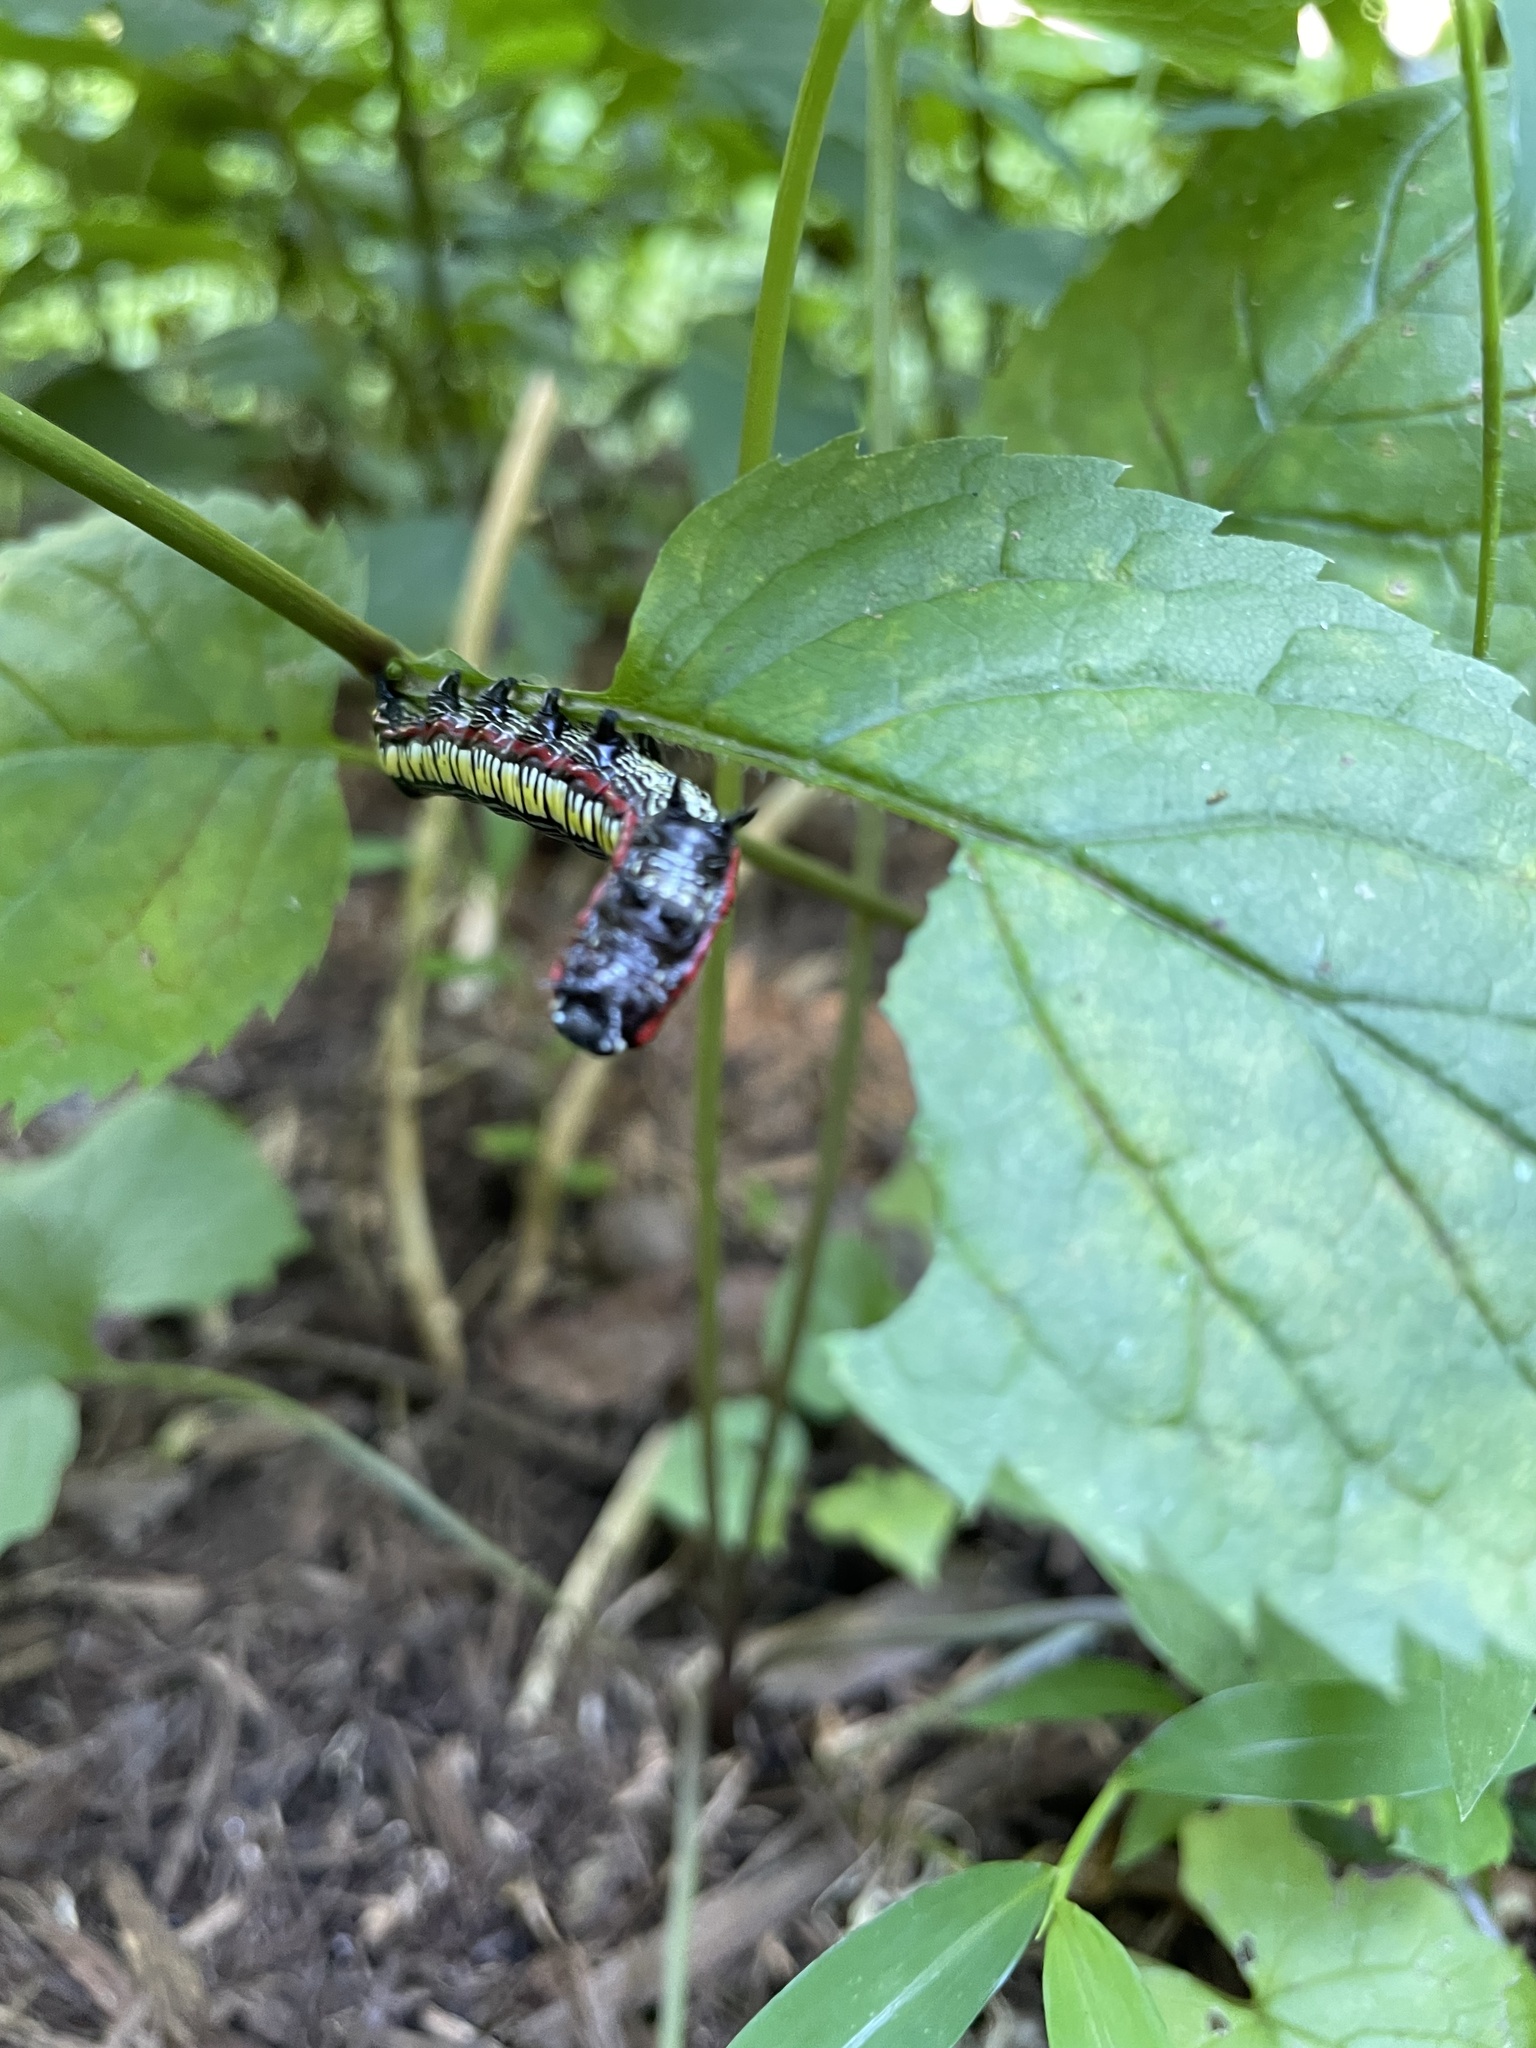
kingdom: Animalia
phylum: Arthropoda
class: Insecta
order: Lepidoptera
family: Noctuidae
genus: Cucullia
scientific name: Cucullia convexipennis
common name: Brown-hooded owlet
